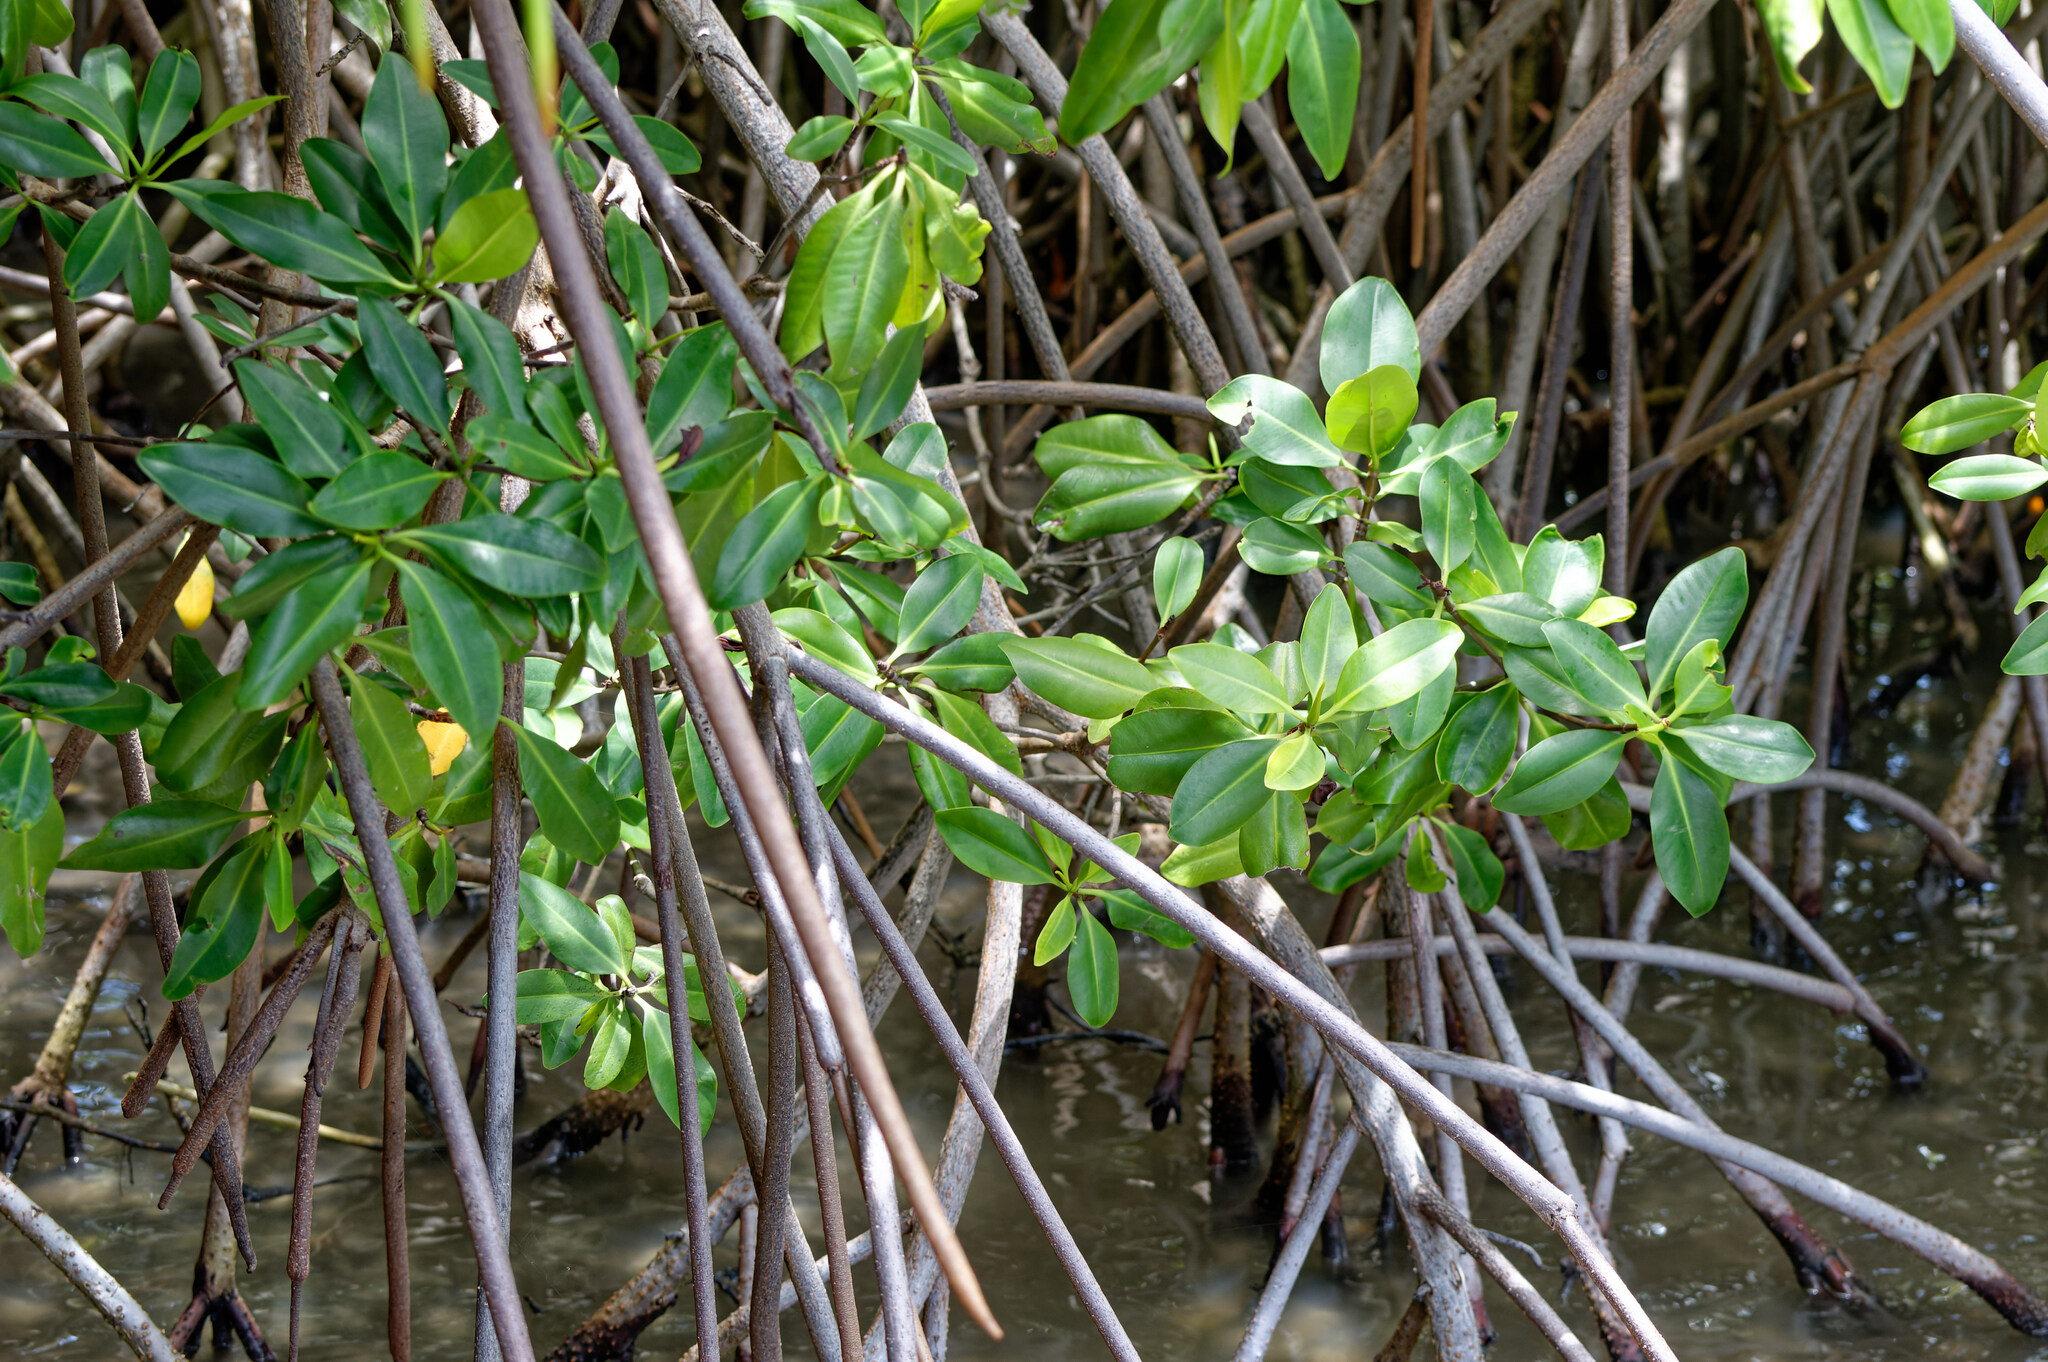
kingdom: Plantae
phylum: Tracheophyta
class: Magnoliopsida
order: Malpighiales
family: Rhizophoraceae
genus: Rhizophora
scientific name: Rhizophora mangle
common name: Red mangrove
